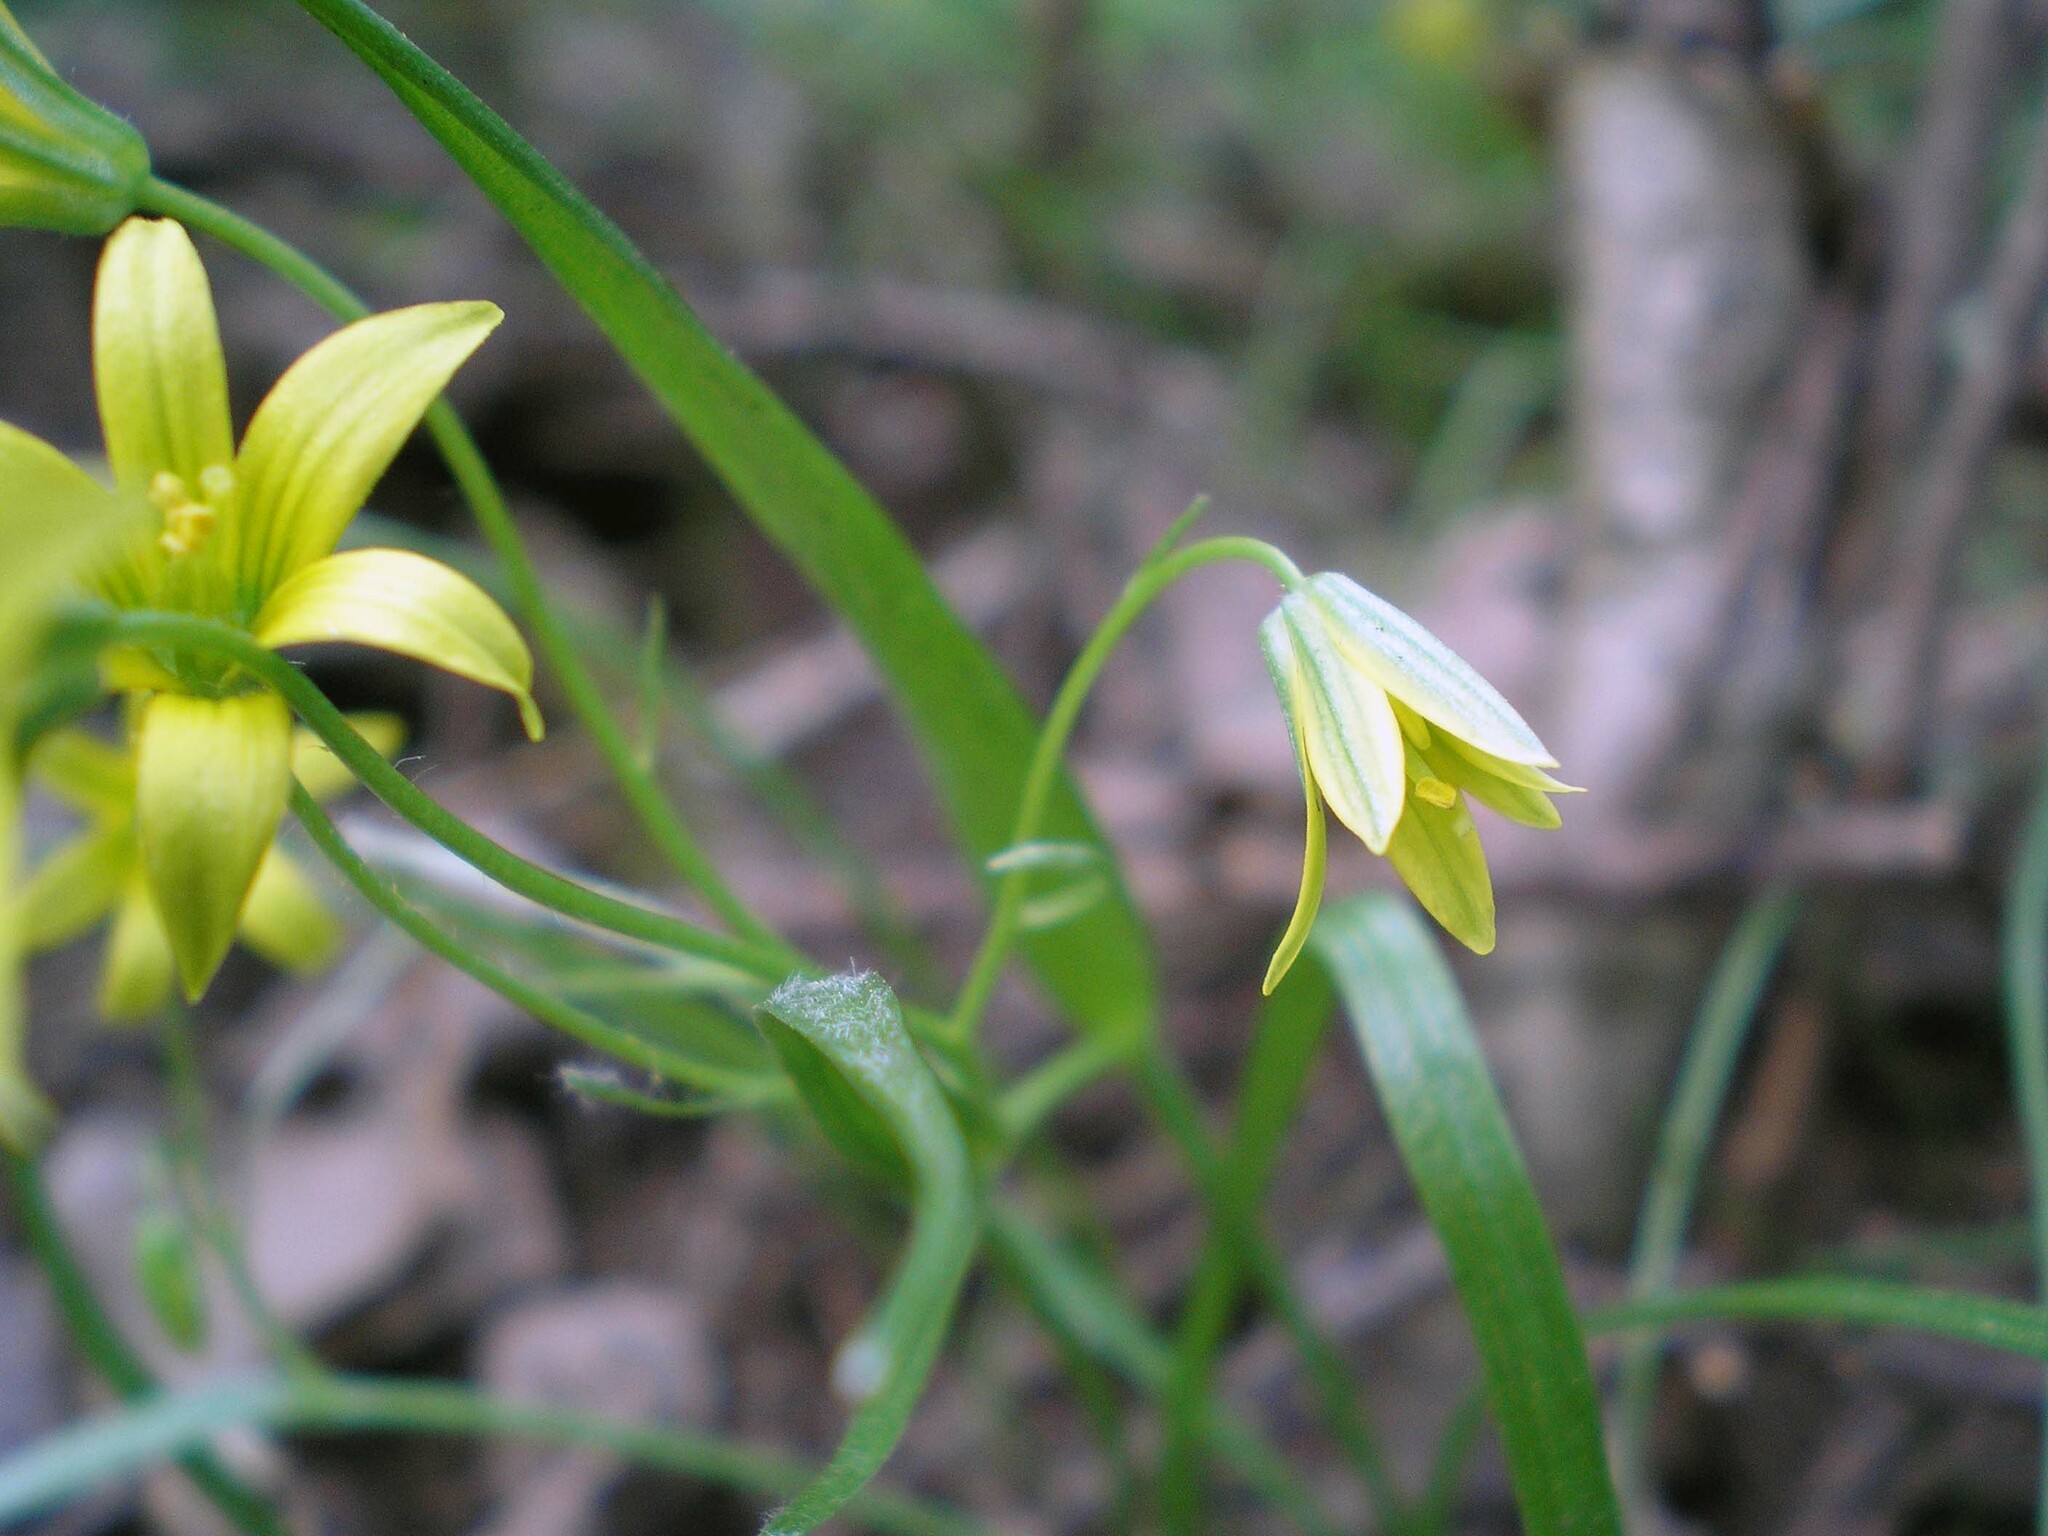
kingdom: Plantae
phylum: Tracheophyta
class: Liliopsida
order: Liliales
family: Liliaceae
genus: Gagea
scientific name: Gagea minima
